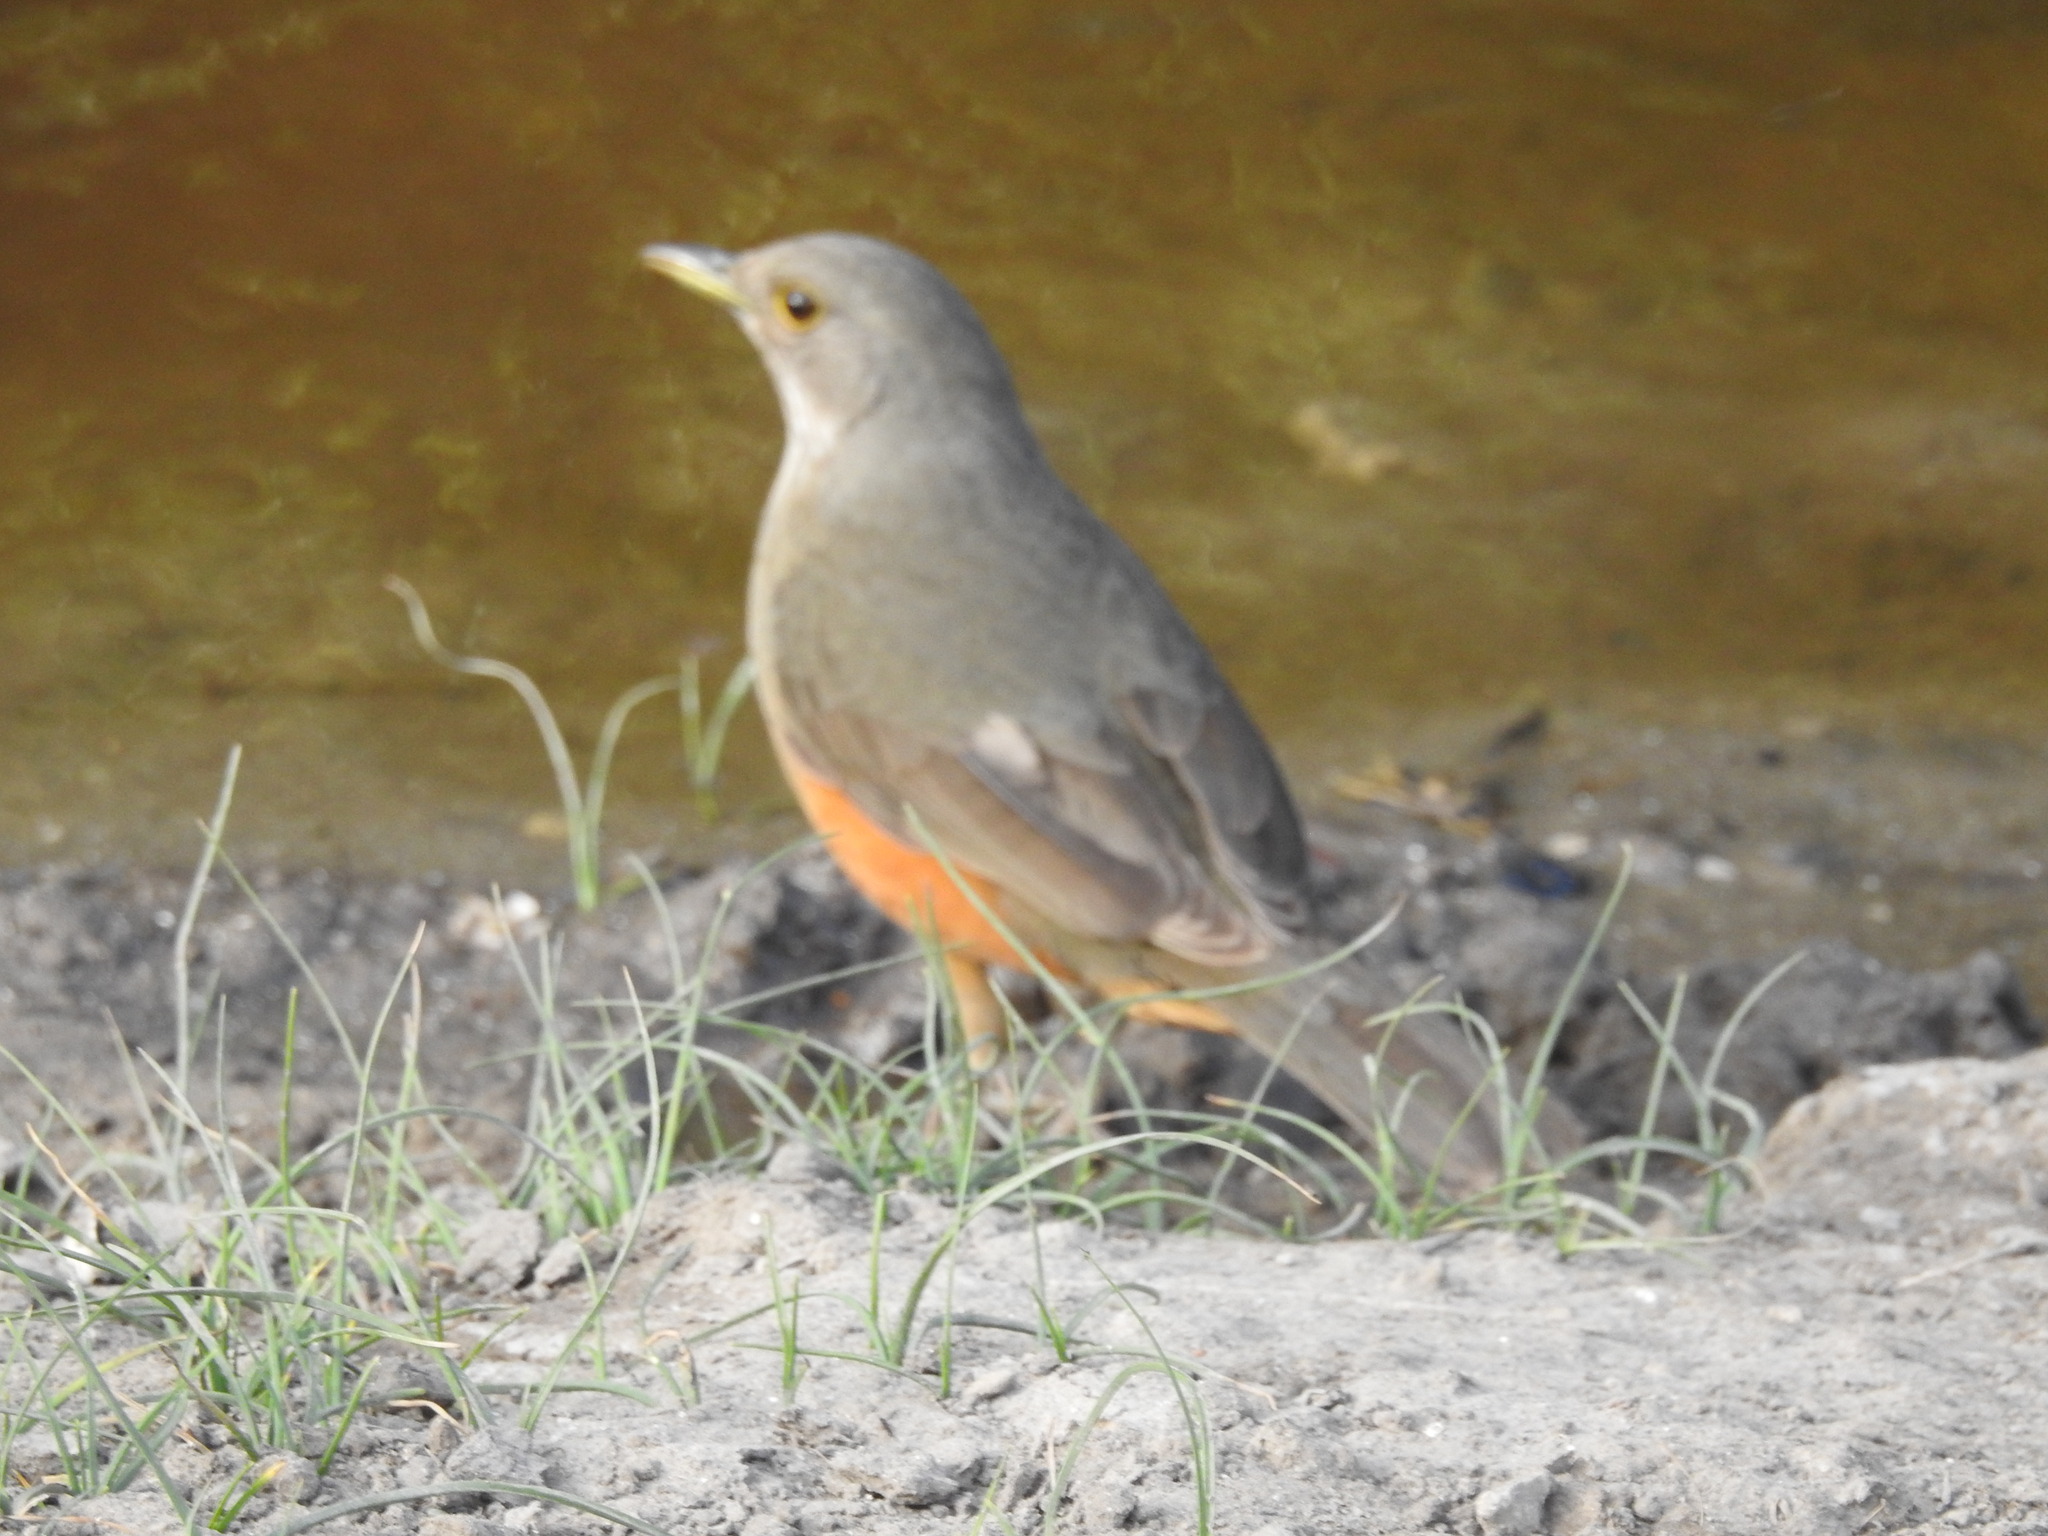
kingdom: Animalia
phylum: Chordata
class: Aves
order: Passeriformes
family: Turdidae
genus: Turdus
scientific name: Turdus rufiventris
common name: Rufous-bellied thrush
